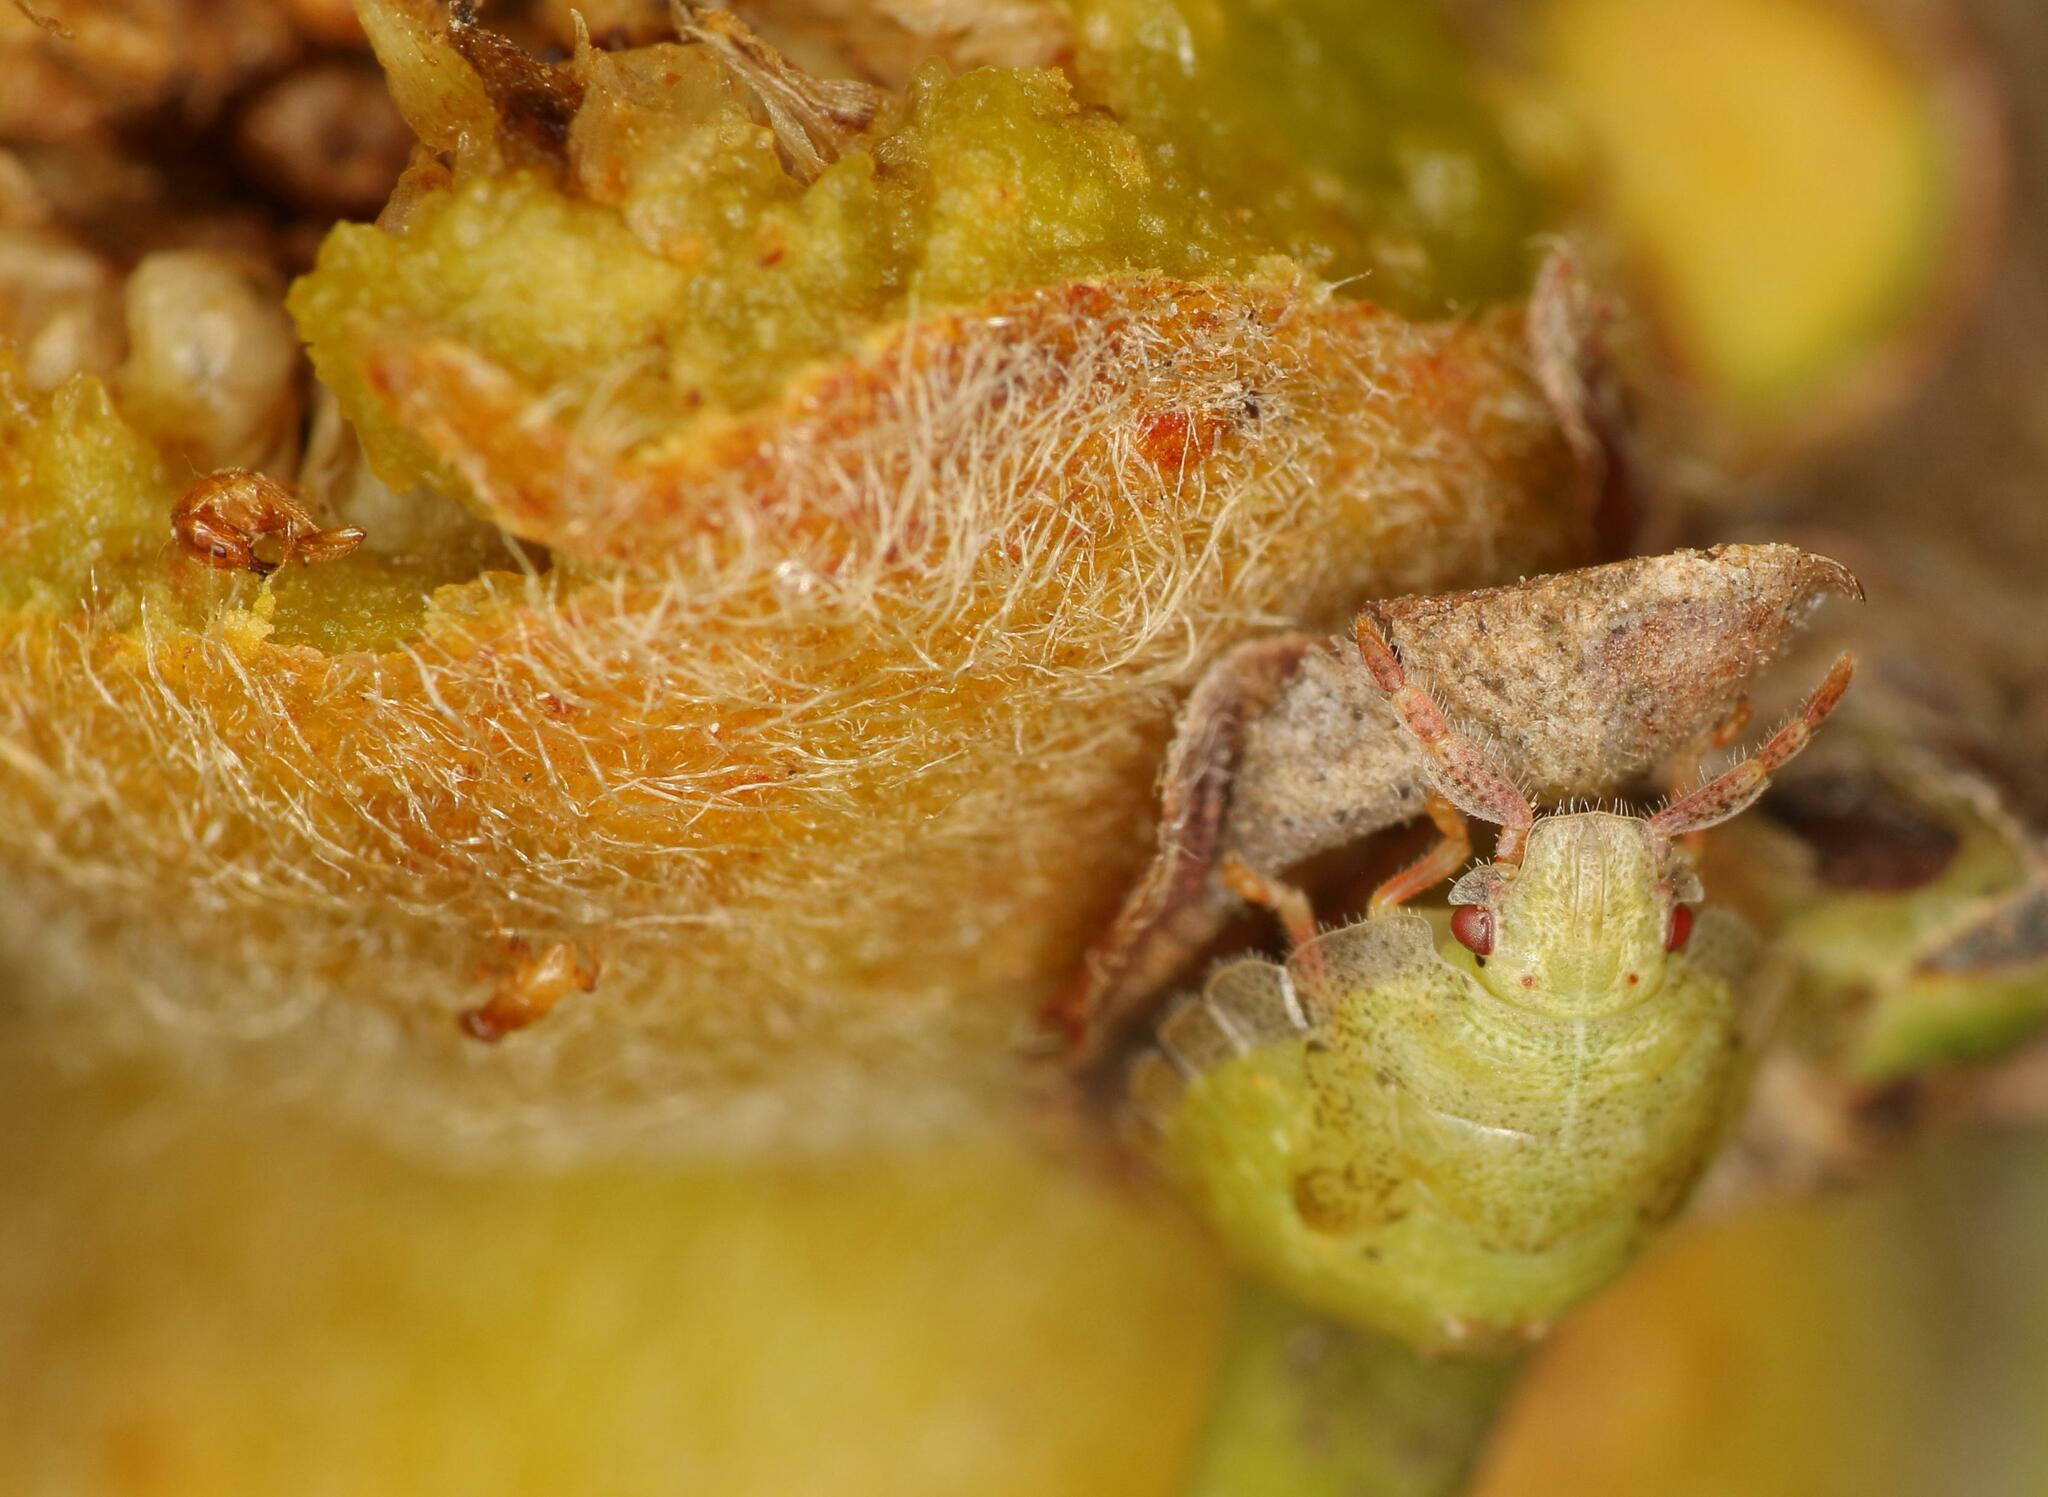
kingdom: Animalia
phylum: Arthropoda
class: Insecta
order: Hemiptera
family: Acanthosomatidae
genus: Uhlunga
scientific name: Uhlunga typica
